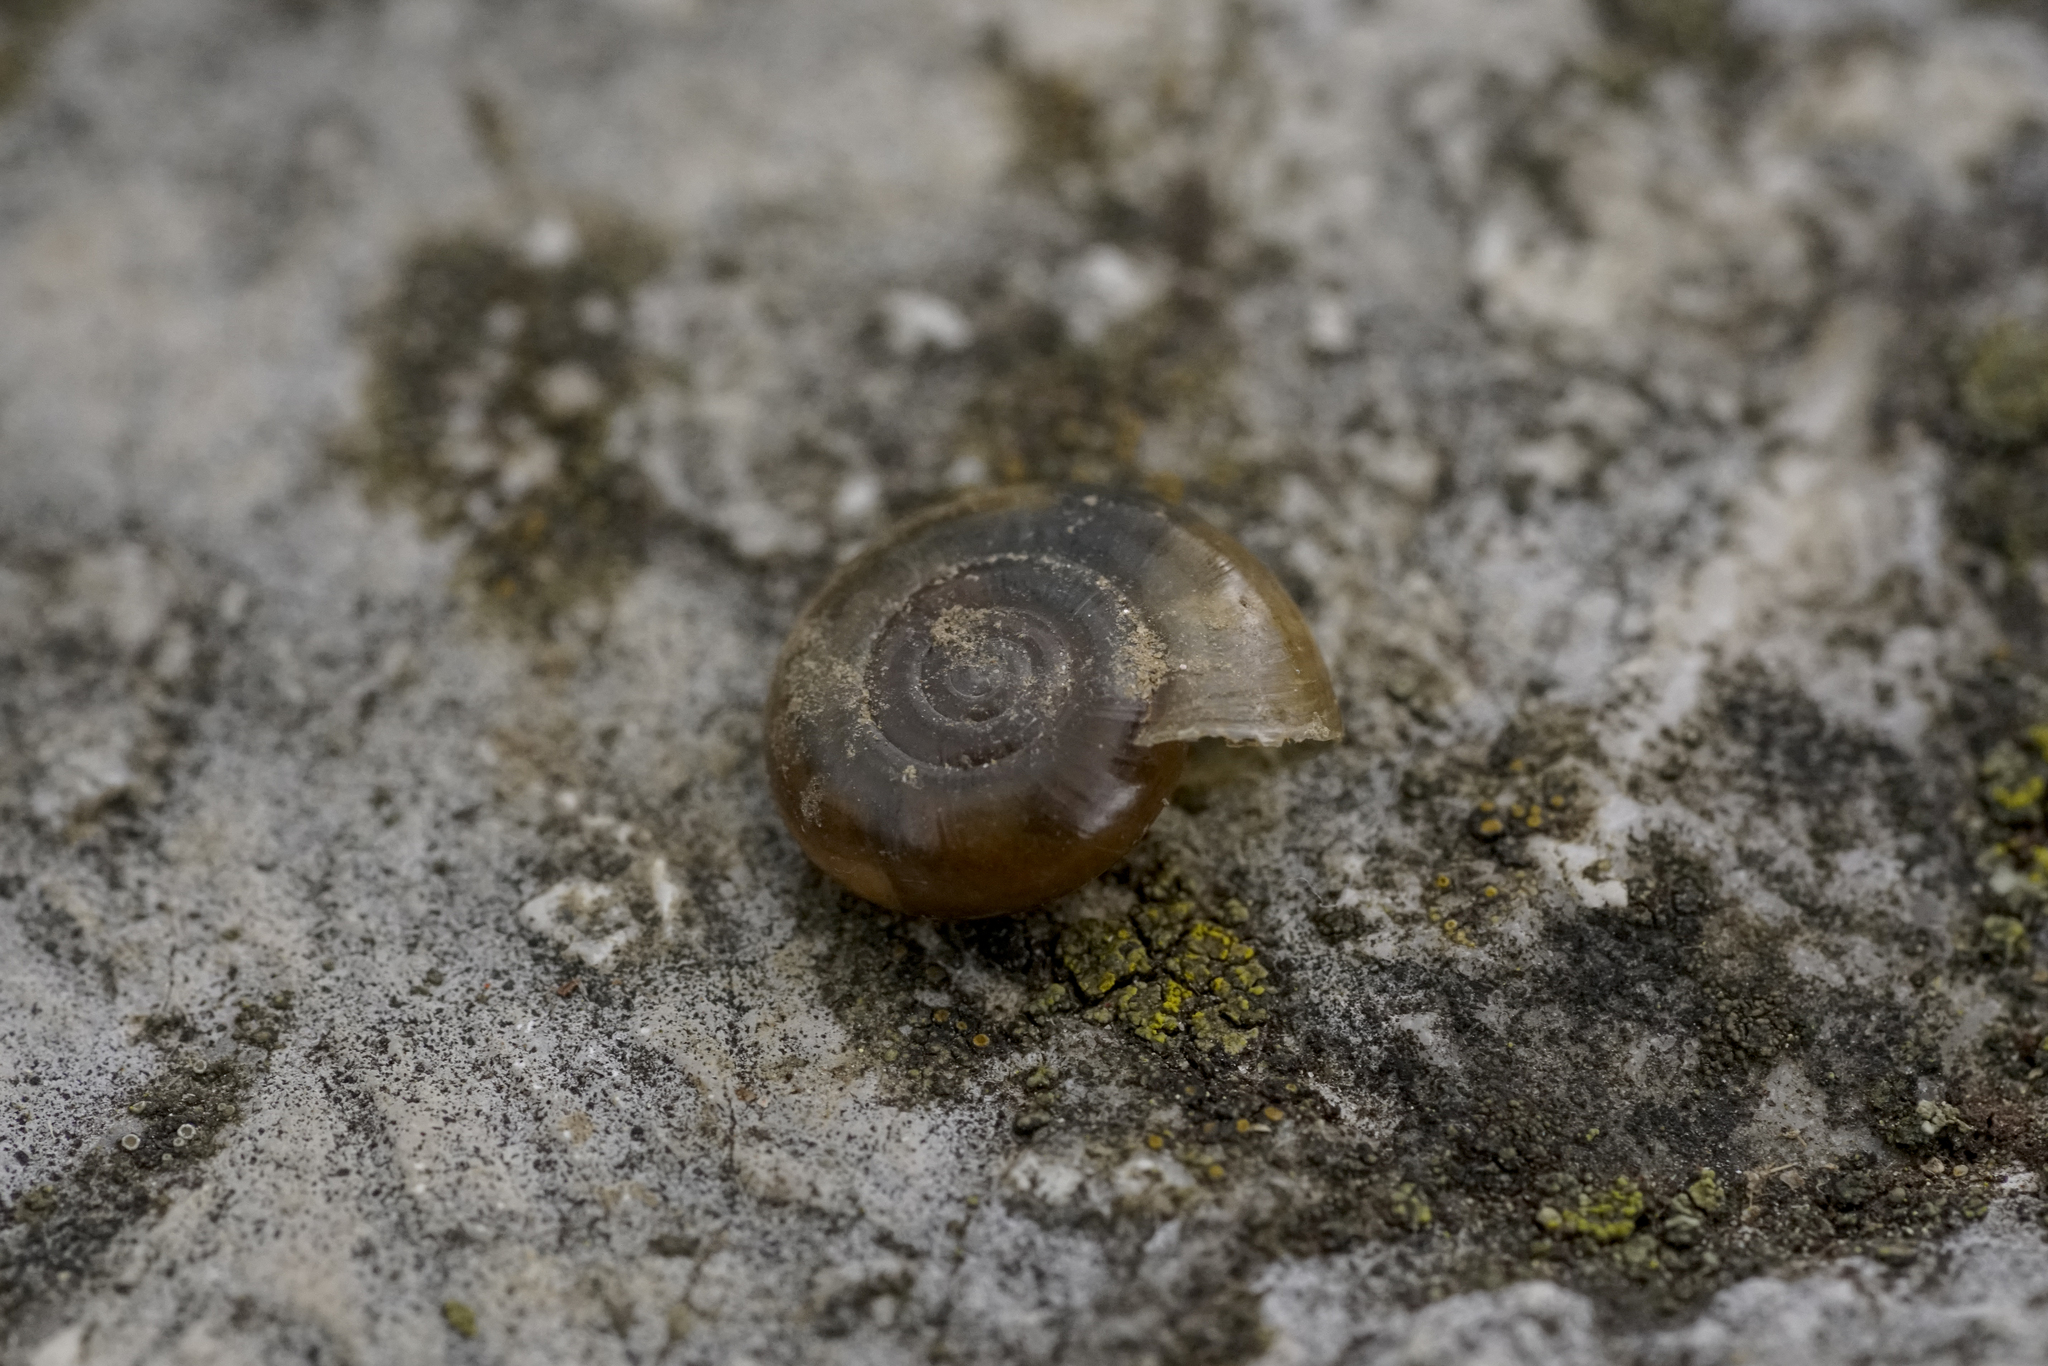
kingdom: Animalia
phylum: Mollusca
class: Gastropoda
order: Stylommatophora
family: Oxychilidae
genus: Oxychilus
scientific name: Oxychilus draparnaudi
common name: Draparnaud's glass snail
